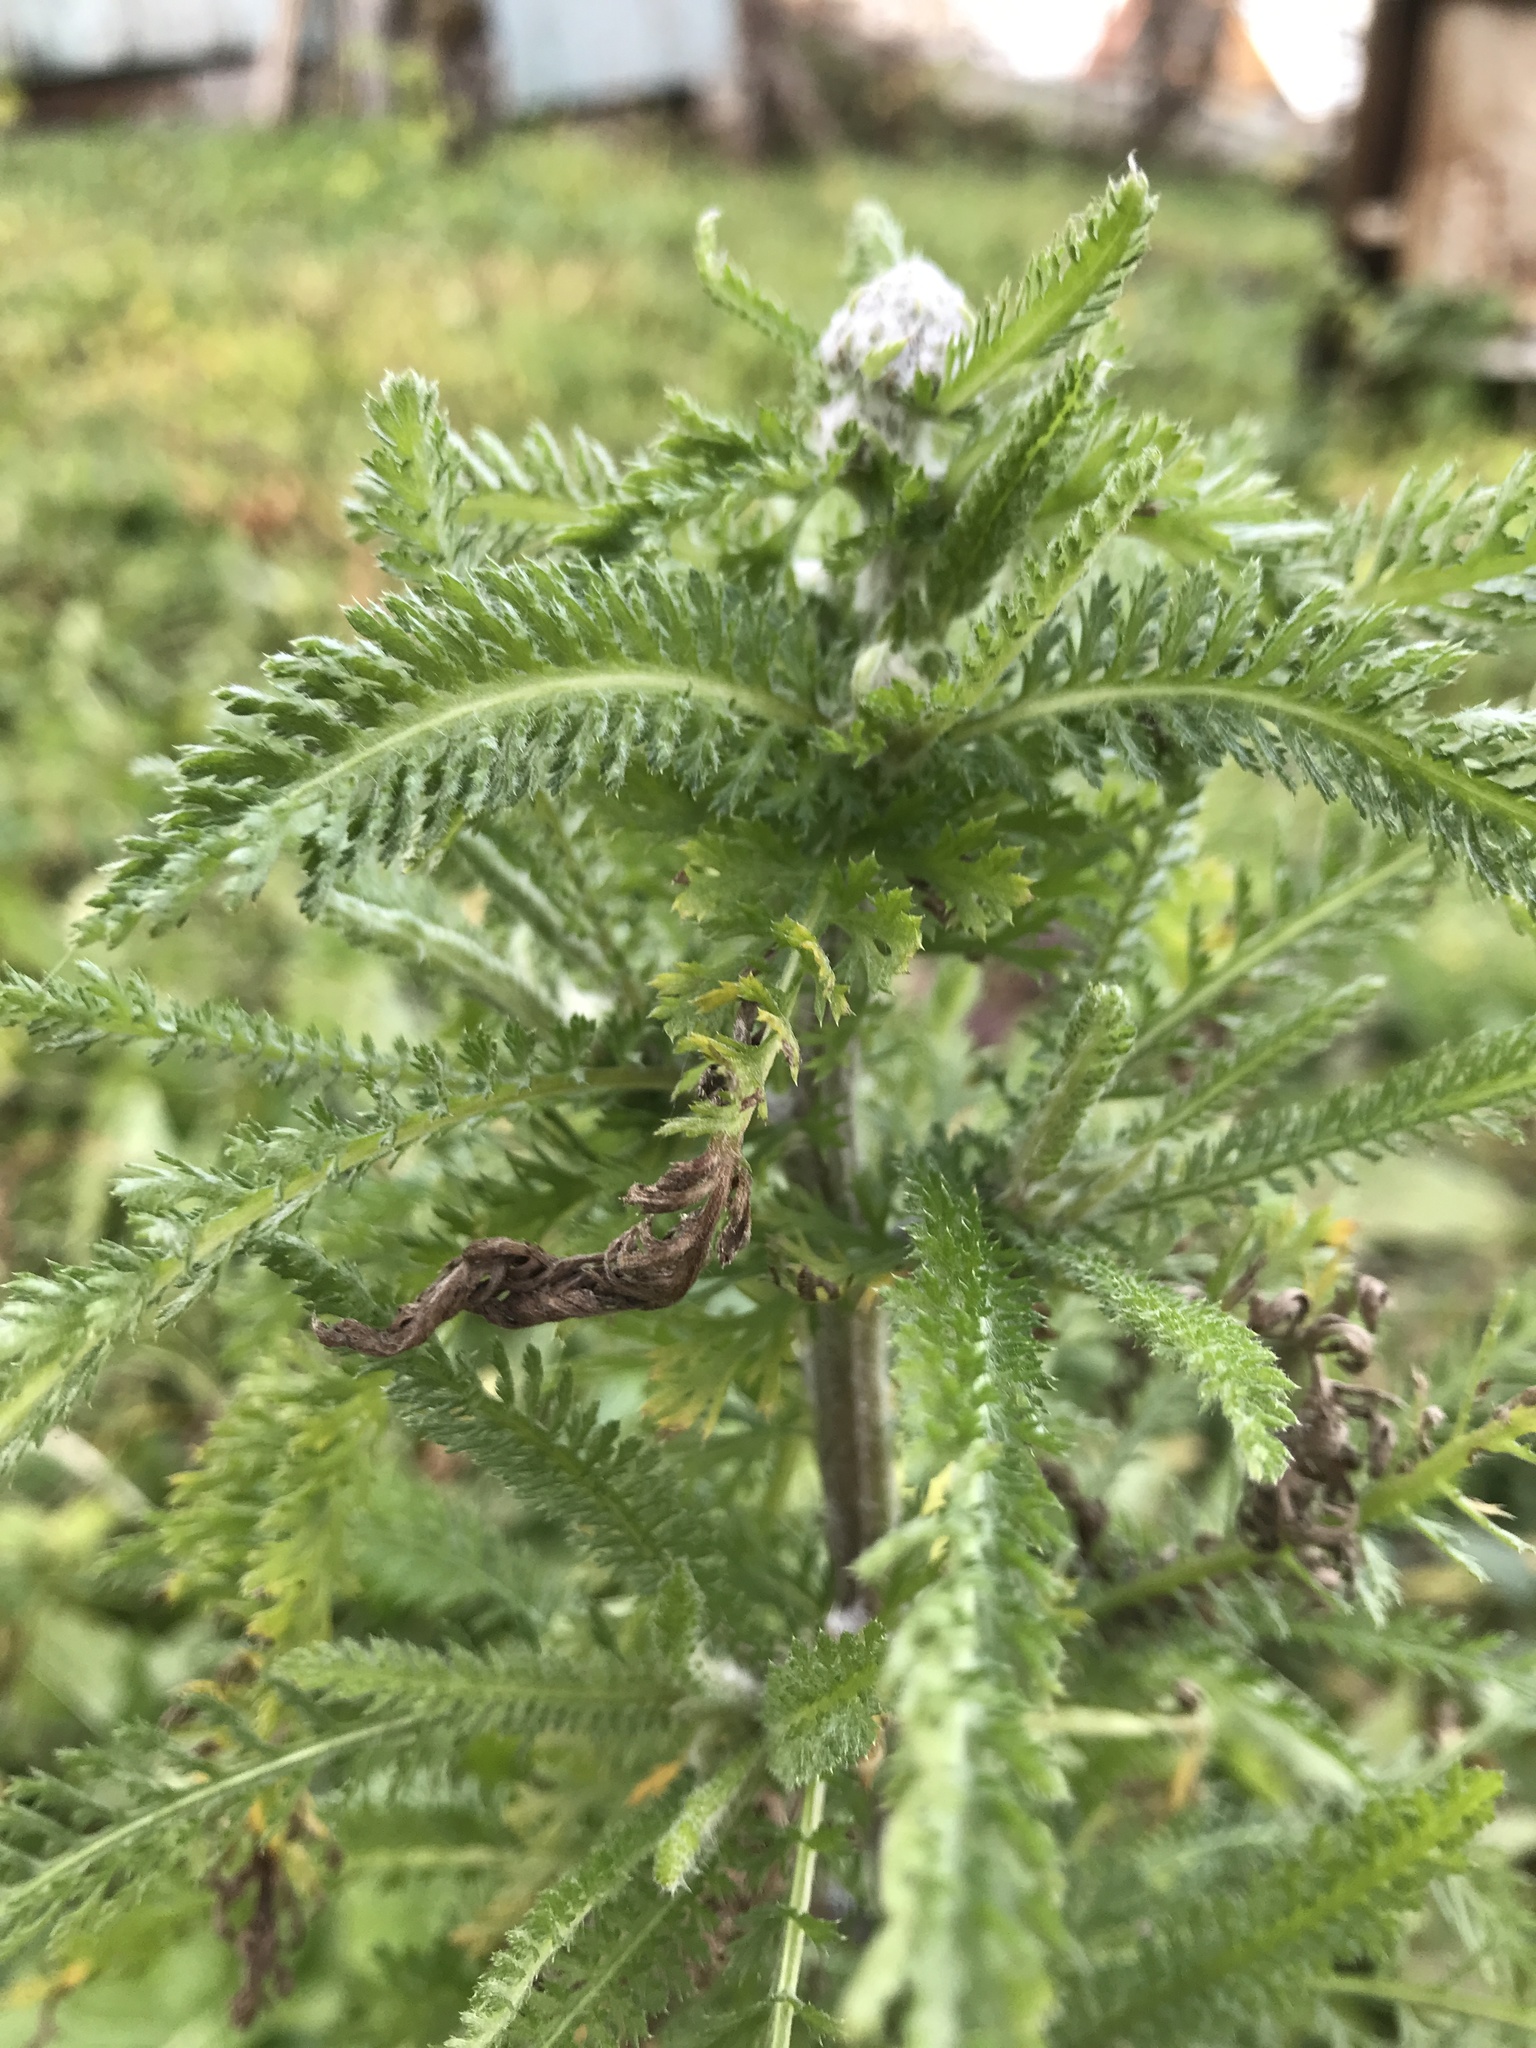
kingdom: Plantae
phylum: Tracheophyta
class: Magnoliopsida
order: Asterales
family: Asteraceae
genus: Achillea
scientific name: Achillea millefolium
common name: Yarrow
